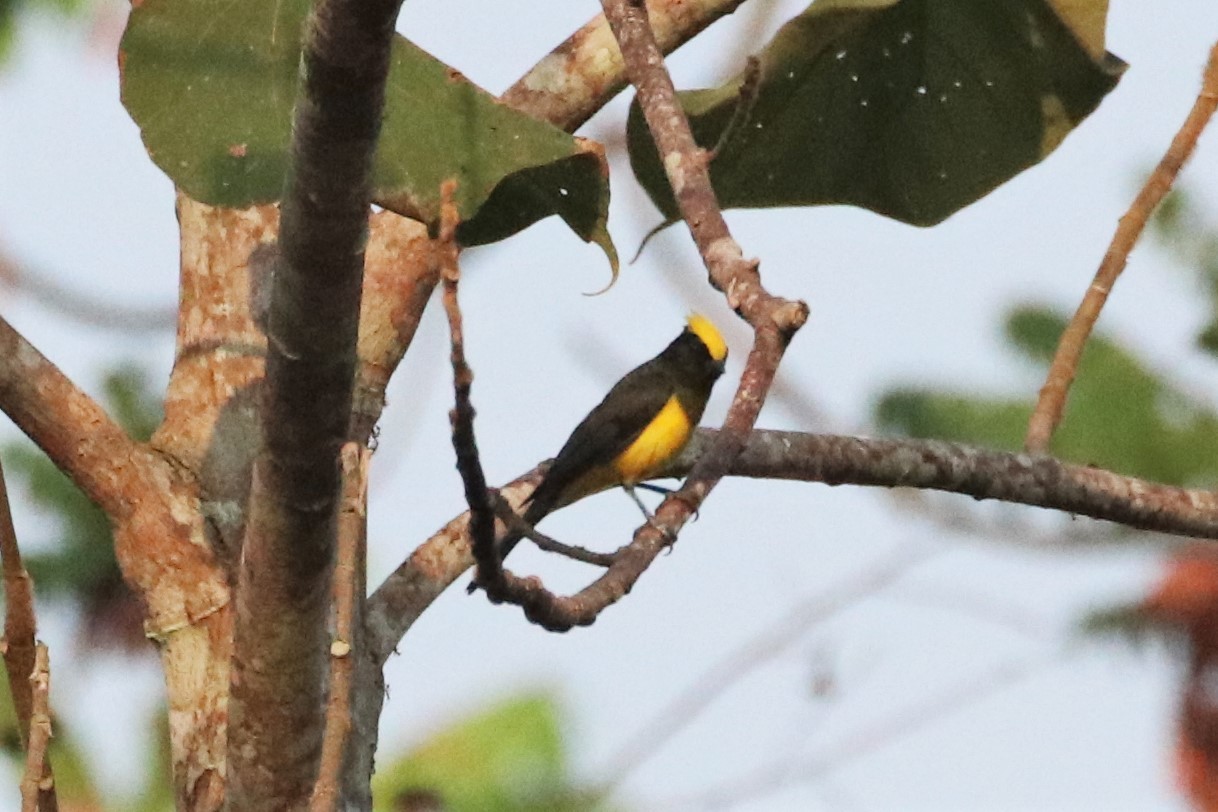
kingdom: Animalia
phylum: Chordata
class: Aves
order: Passeriformes
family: Paridae
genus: Melanochlora
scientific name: Melanochlora sultanea
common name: Sultan tit
